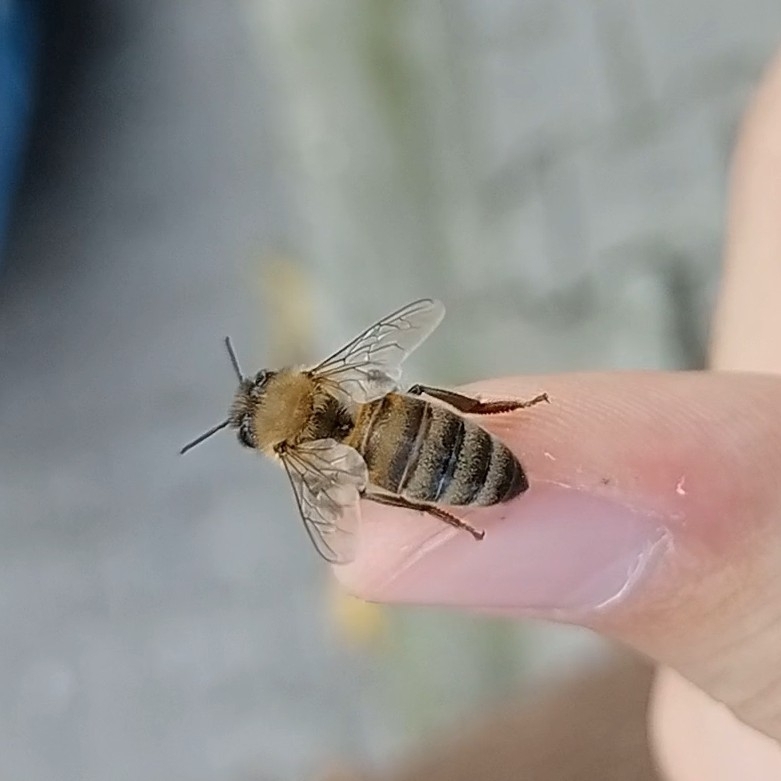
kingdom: Animalia
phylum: Arthropoda
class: Insecta
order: Hymenoptera
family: Apidae
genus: Apis
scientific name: Apis mellifera
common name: Honey bee
